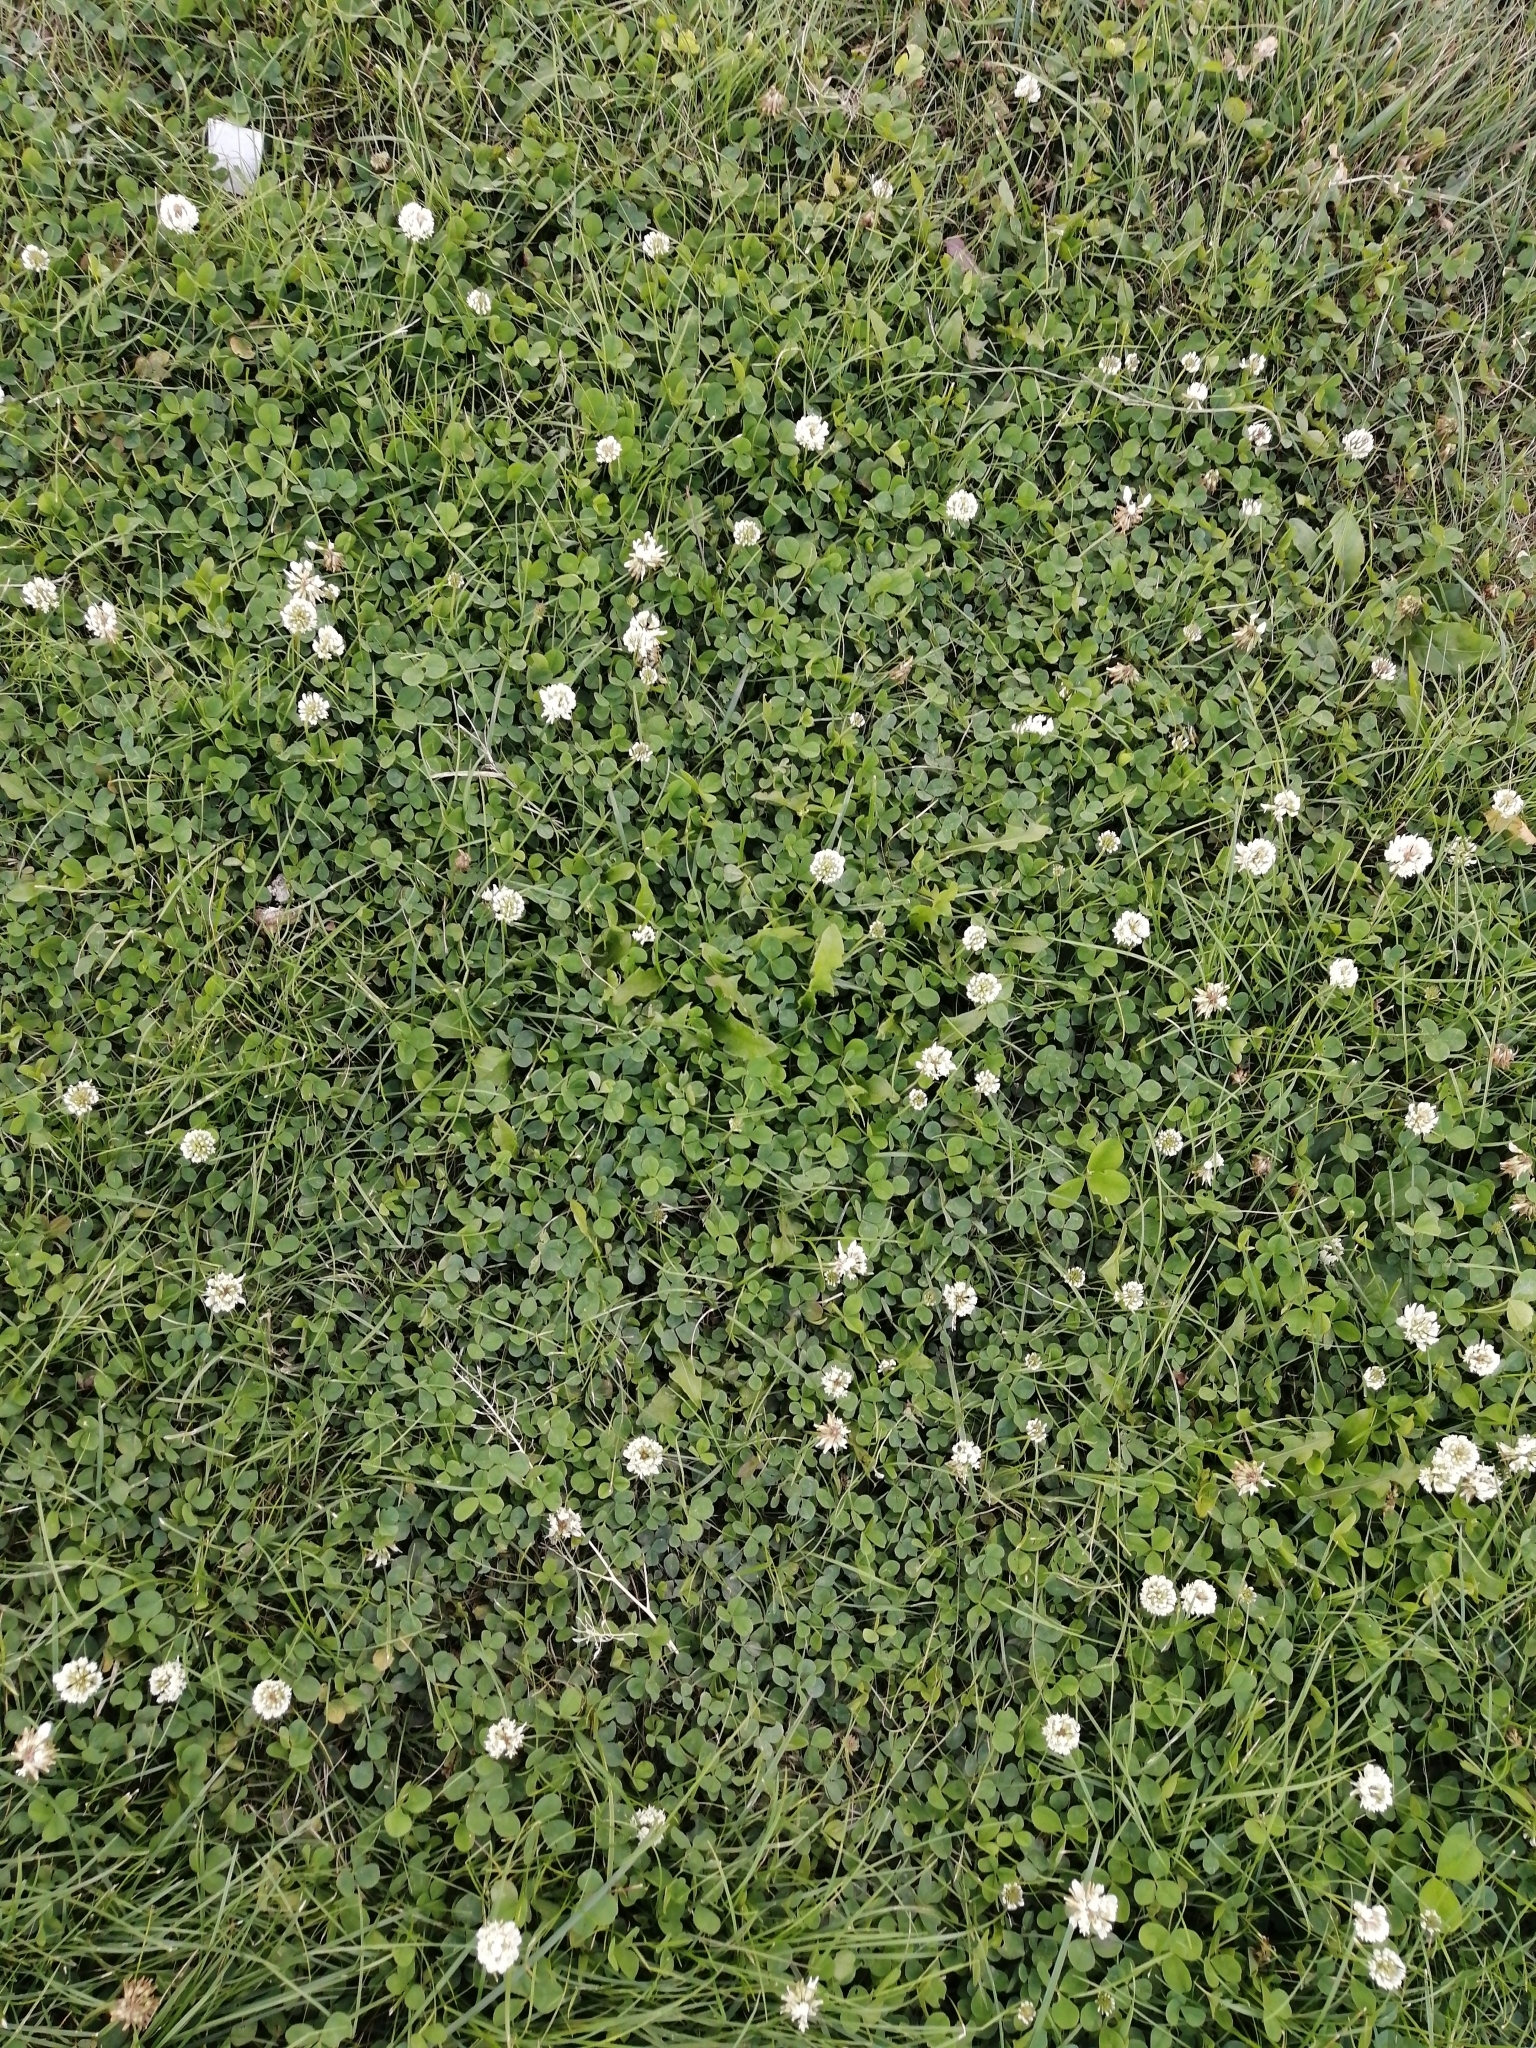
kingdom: Plantae
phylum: Tracheophyta
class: Magnoliopsida
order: Fabales
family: Fabaceae
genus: Trifolium
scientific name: Trifolium repens
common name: White clover
